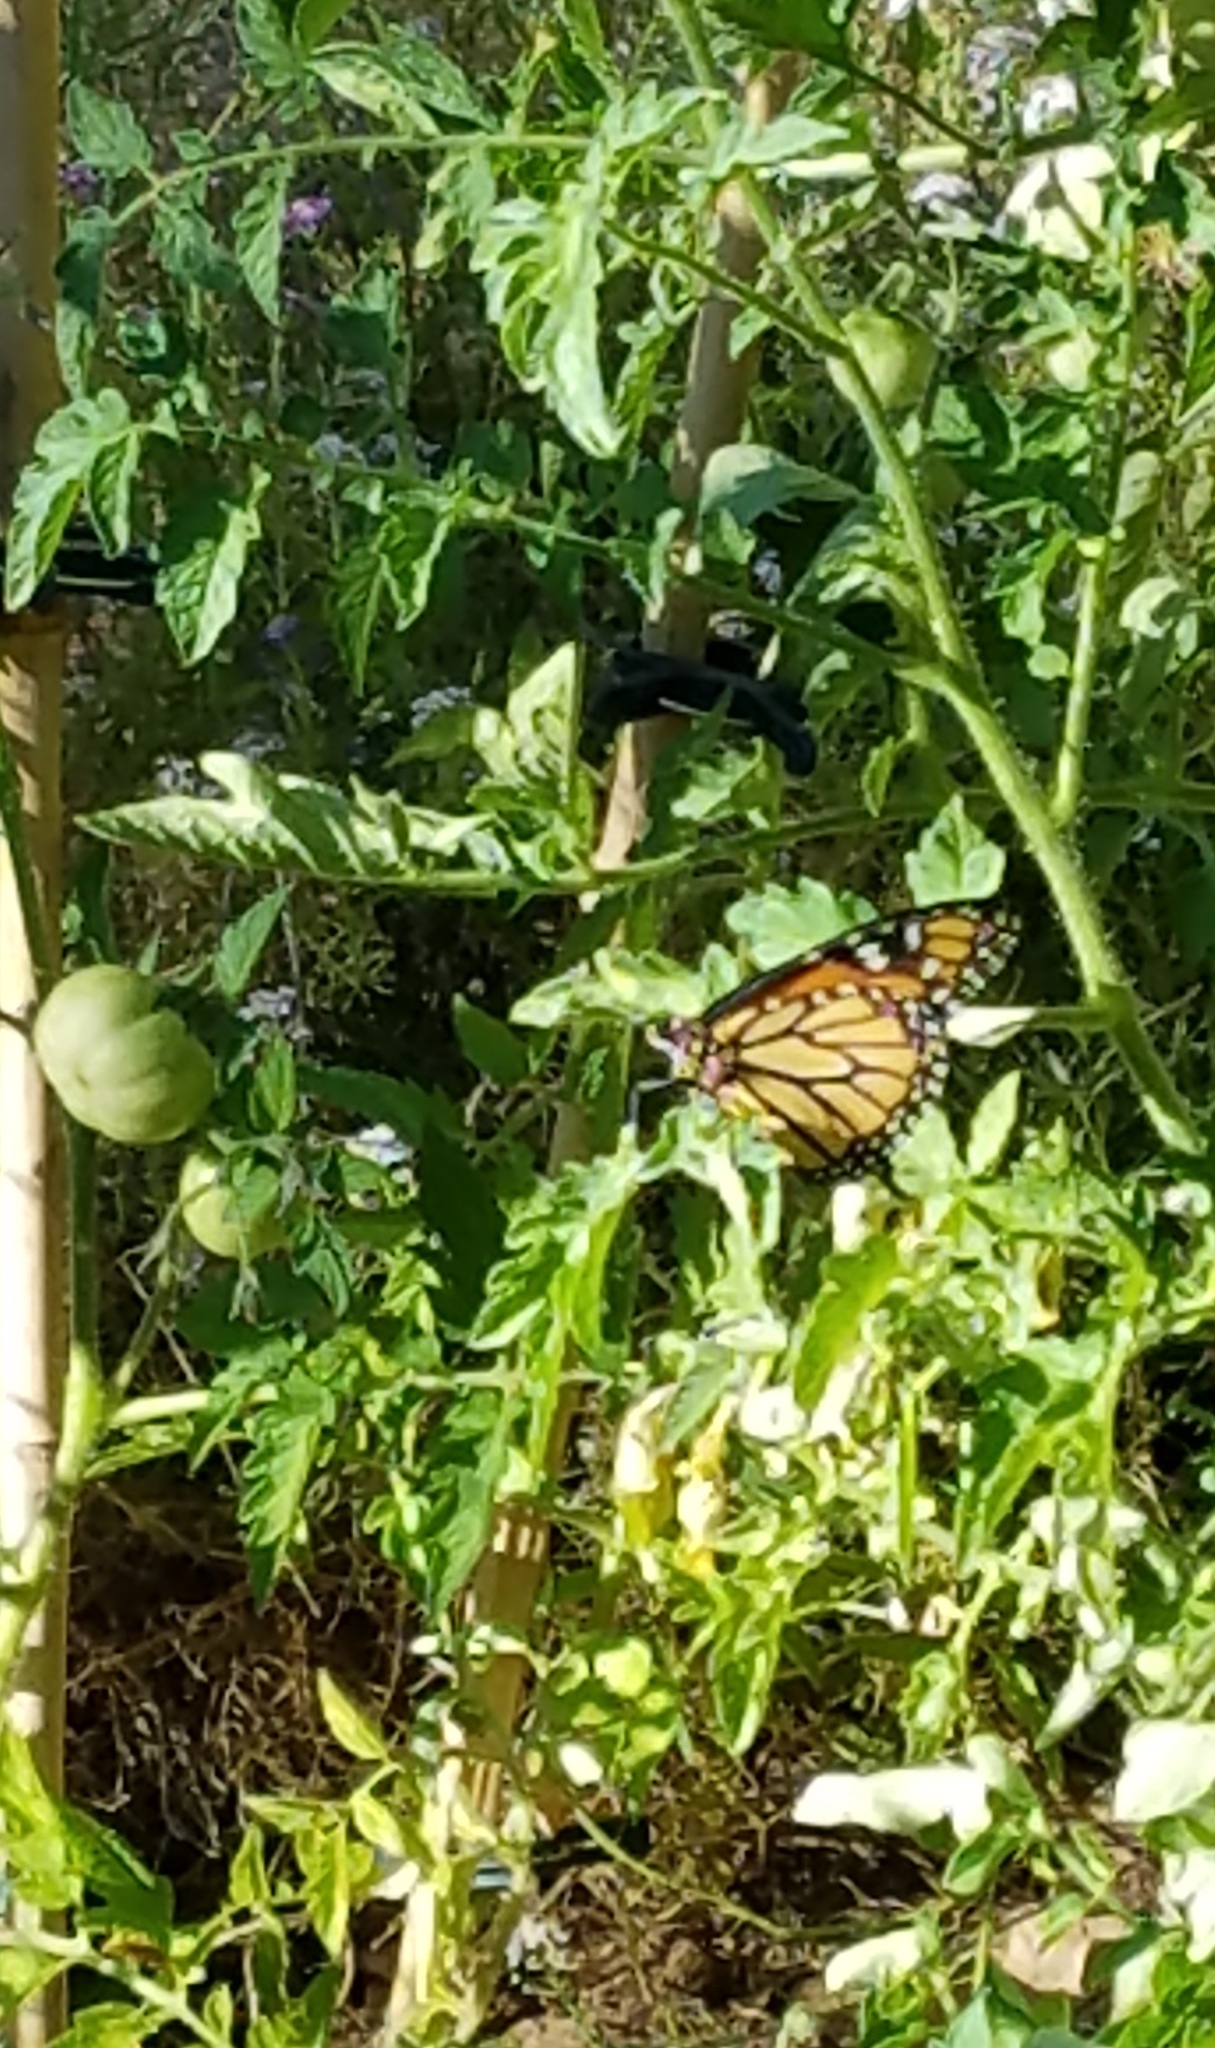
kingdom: Animalia
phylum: Arthropoda
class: Insecta
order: Lepidoptera
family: Nymphalidae
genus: Danaus
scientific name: Danaus plexippus
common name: Monarch
